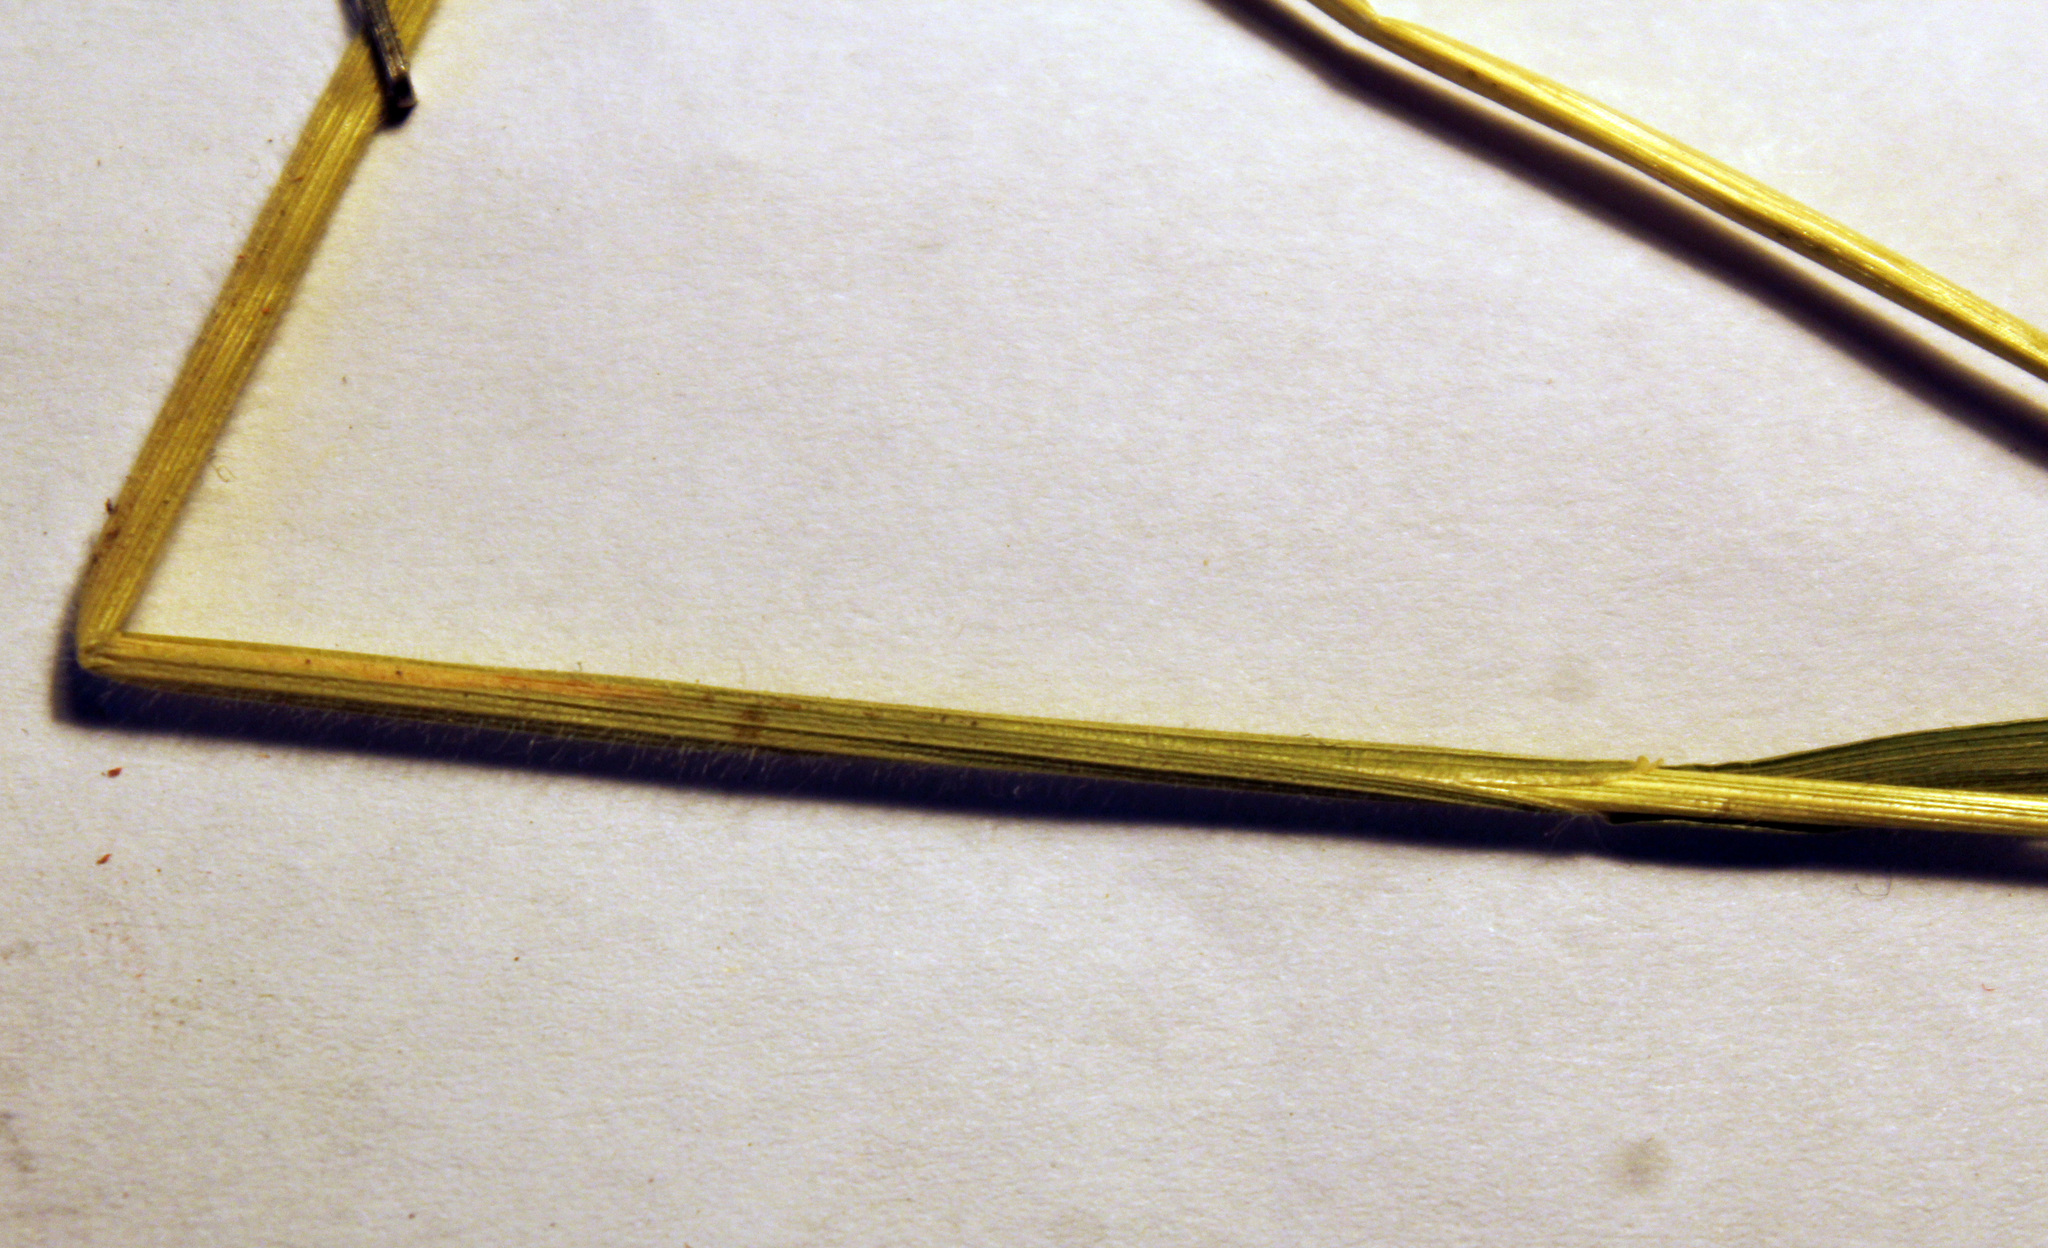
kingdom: Plantae
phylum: Tracheophyta
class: Liliopsida
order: Poales
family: Poaceae
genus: Trisetum
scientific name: Trisetum flavescens
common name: Yellow oat-grass
